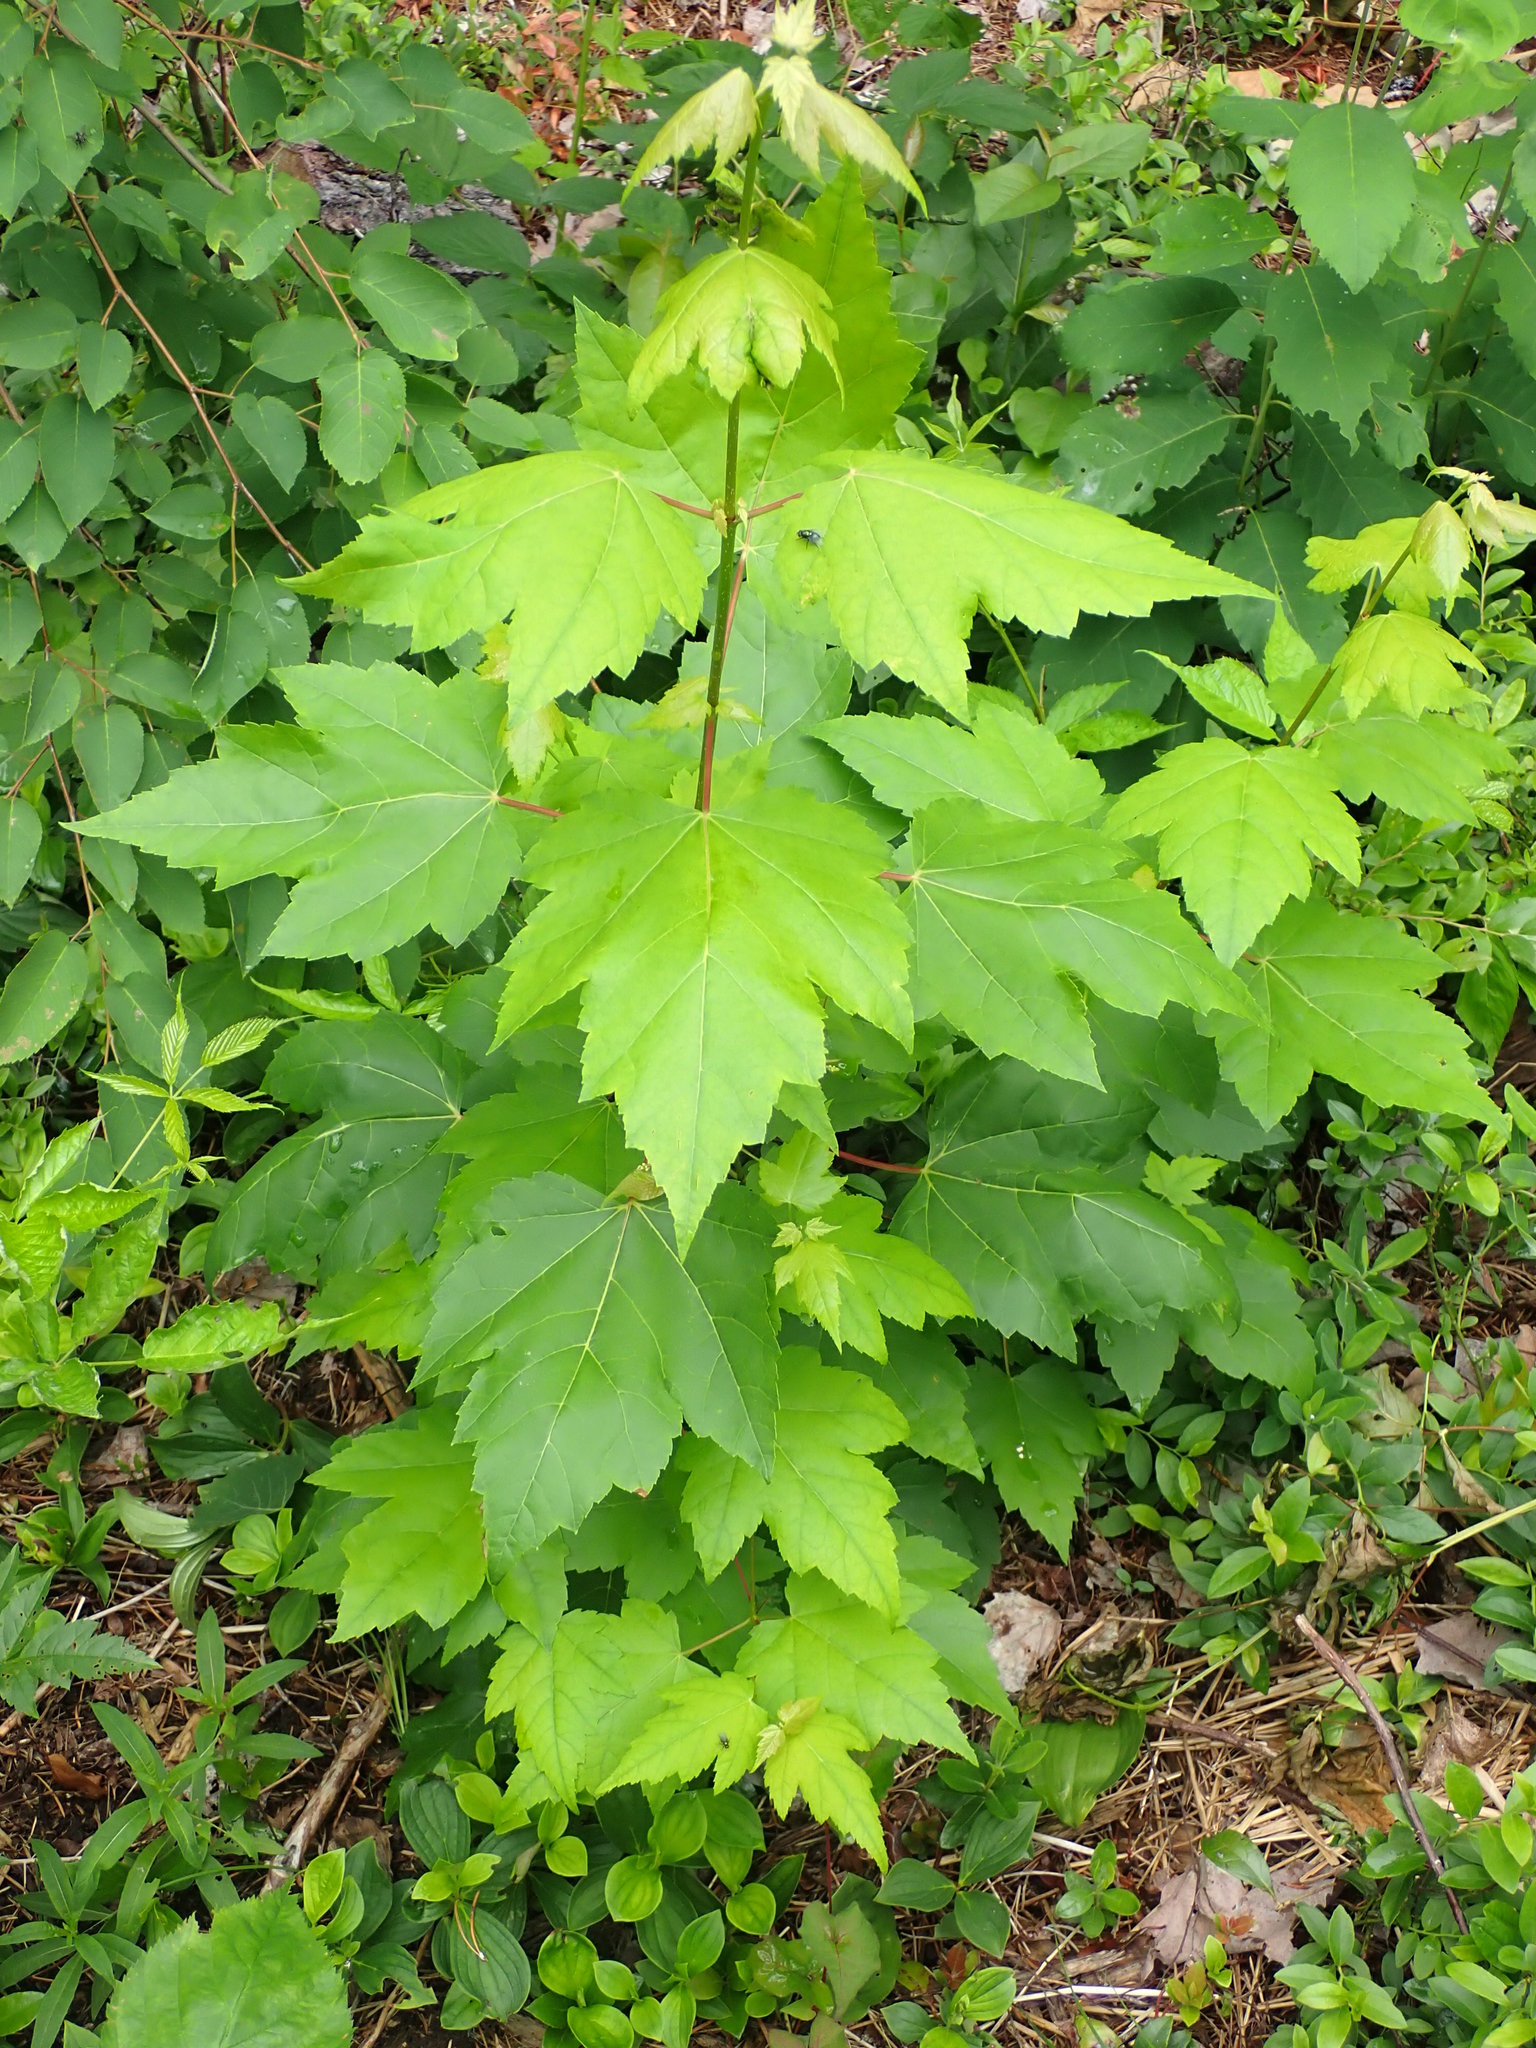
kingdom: Plantae
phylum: Tracheophyta
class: Magnoliopsida
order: Sapindales
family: Sapindaceae
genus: Acer
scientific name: Acer rubrum
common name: Red maple
